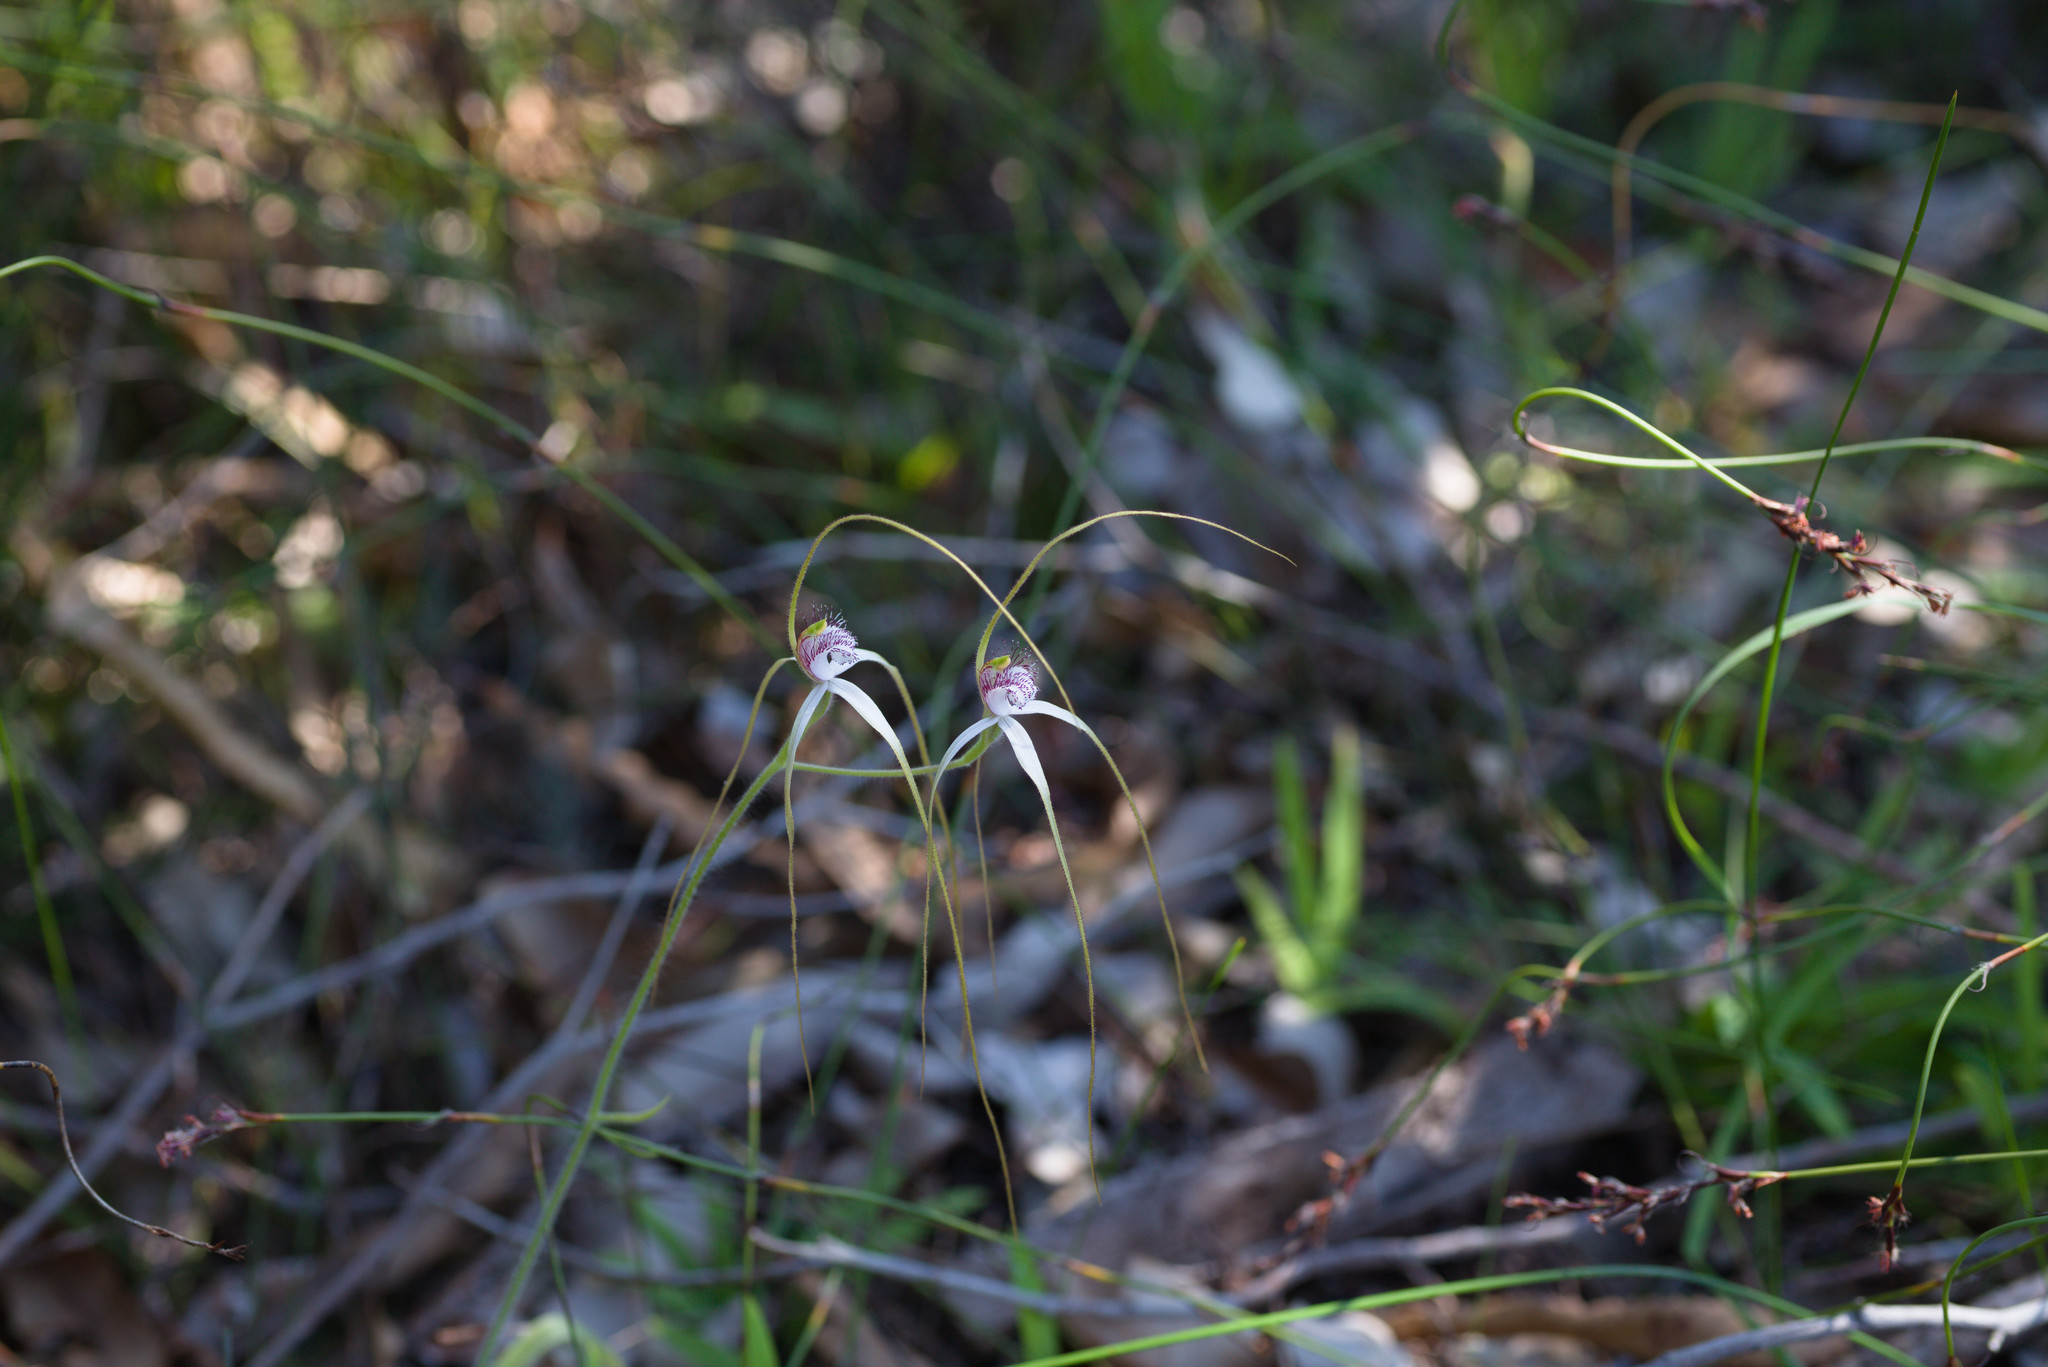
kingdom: Plantae
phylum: Tracheophyta
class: Liliopsida
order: Asparagales
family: Orchidaceae
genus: Caladenia
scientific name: Caladenia longicauda
